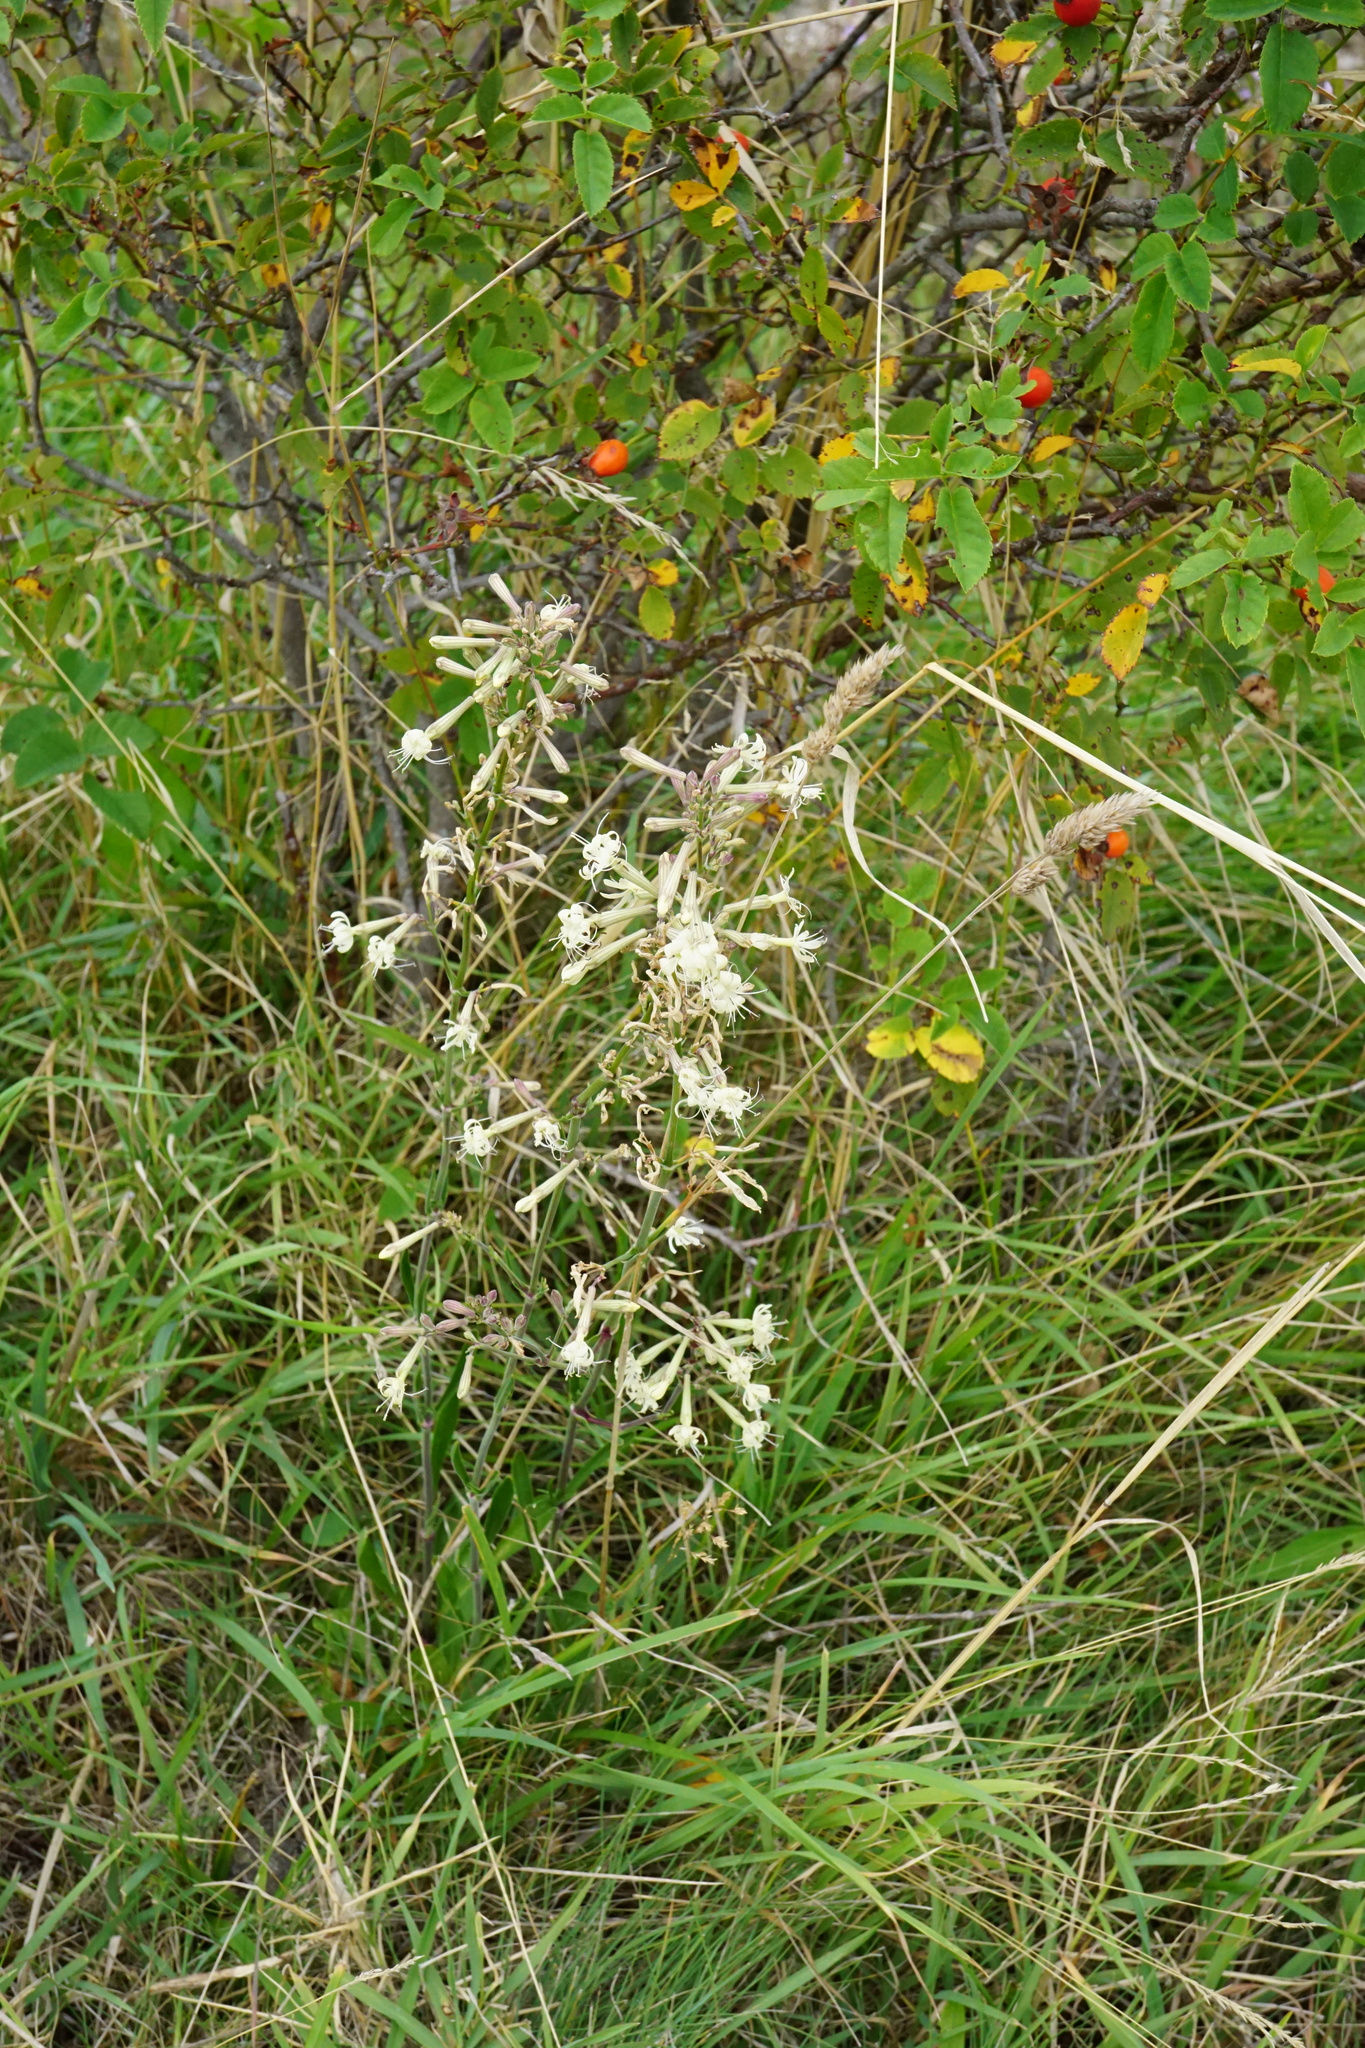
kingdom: Plantae
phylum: Tracheophyta
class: Magnoliopsida
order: Caryophyllales
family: Caryophyllaceae
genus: Silene
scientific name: Silene multiflora
